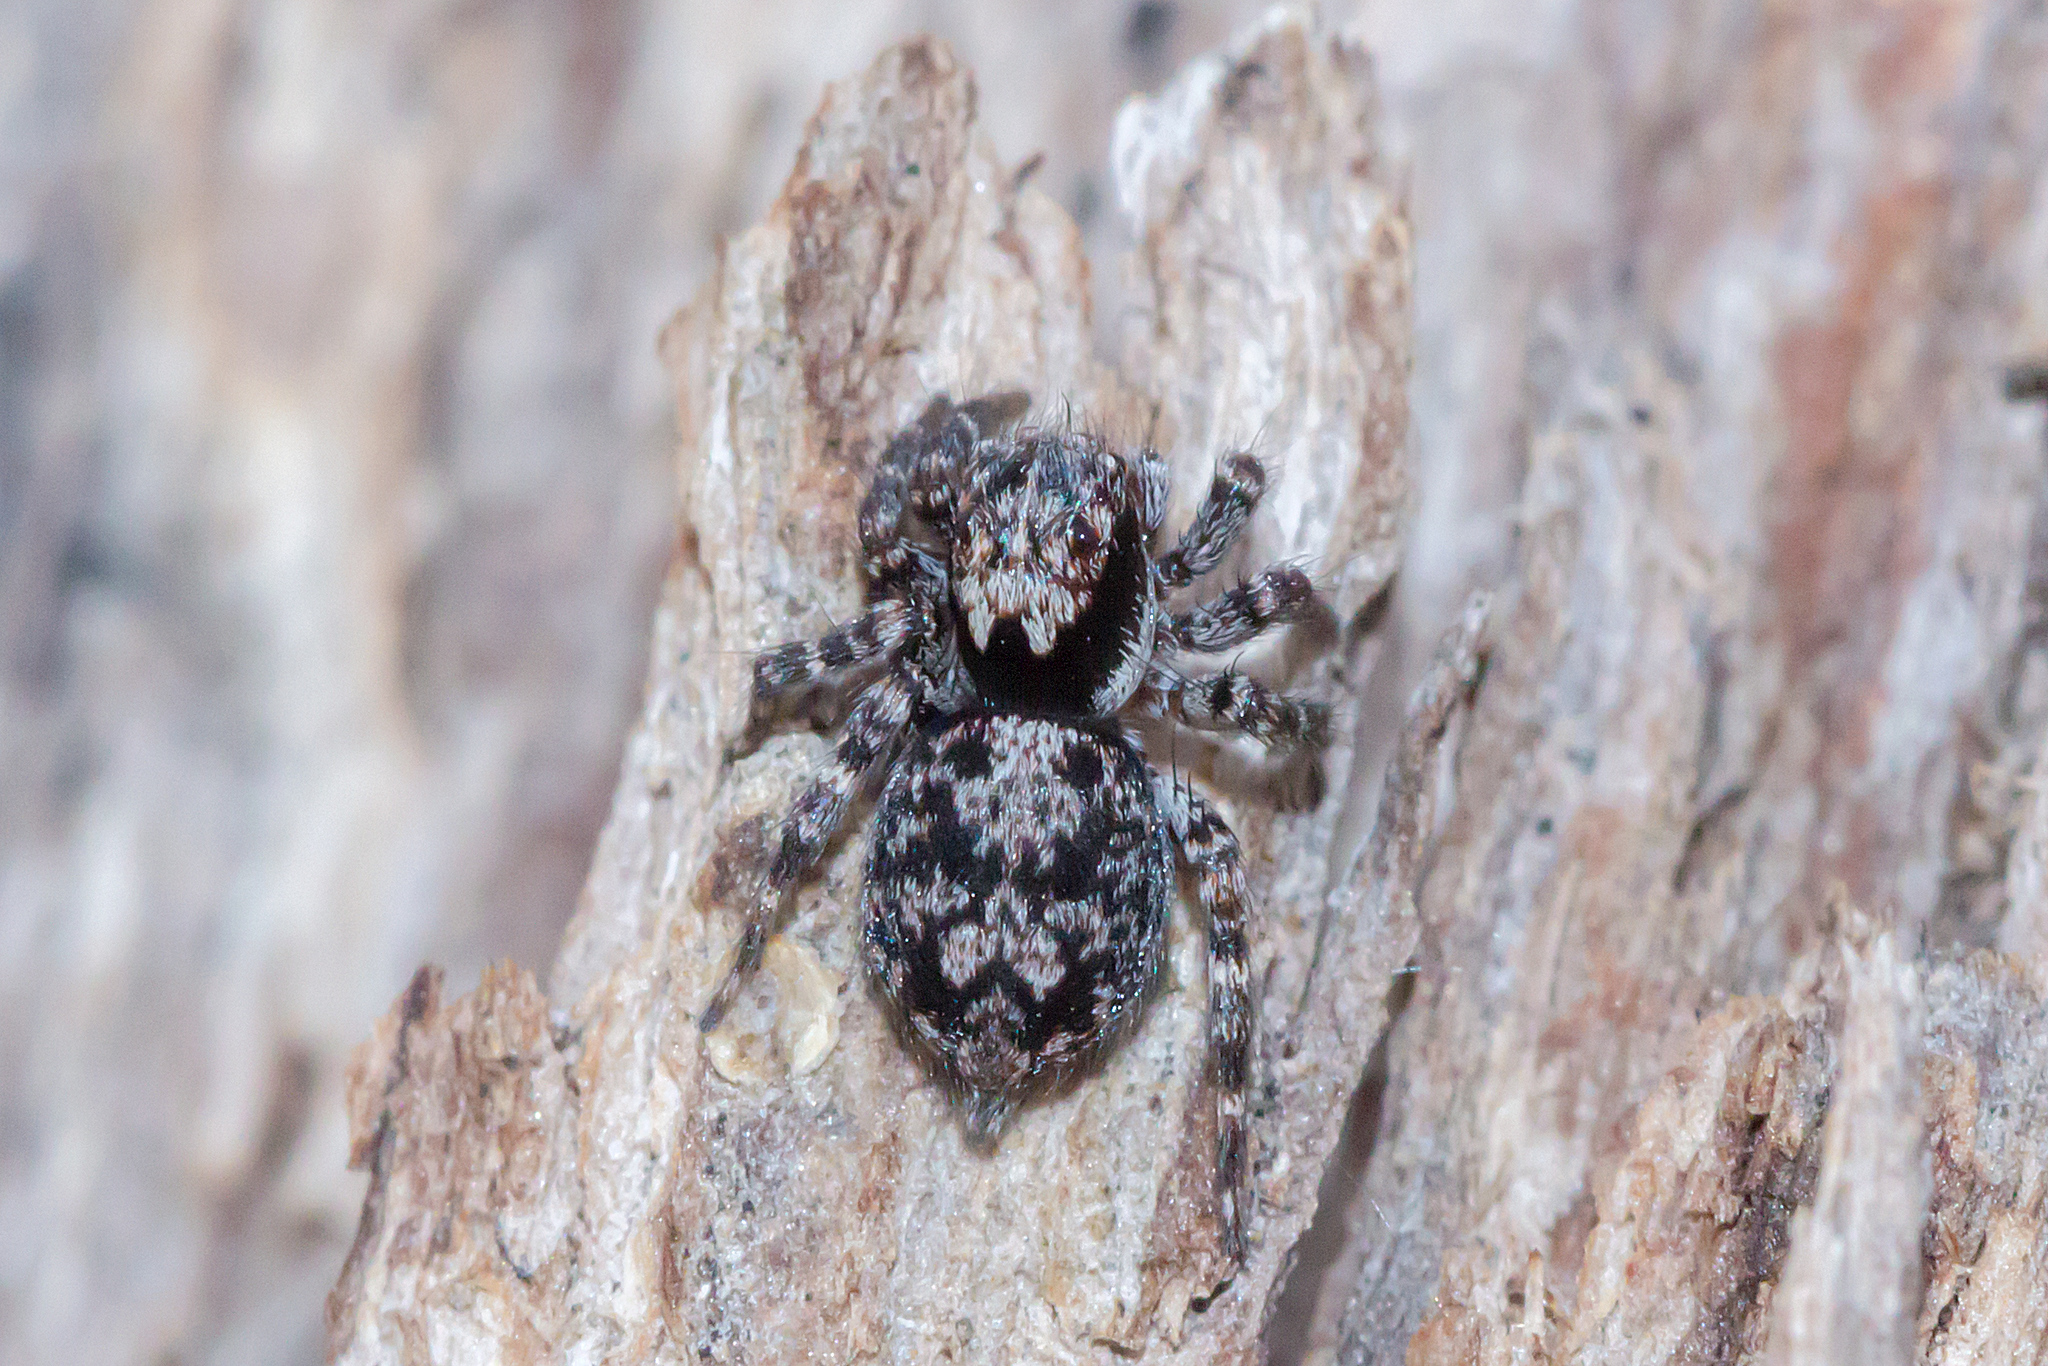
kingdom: Animalia
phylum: Arthropoda
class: Arachnida
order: Araneae
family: Salticidae
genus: Salpesia
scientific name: Salpesia squalida
